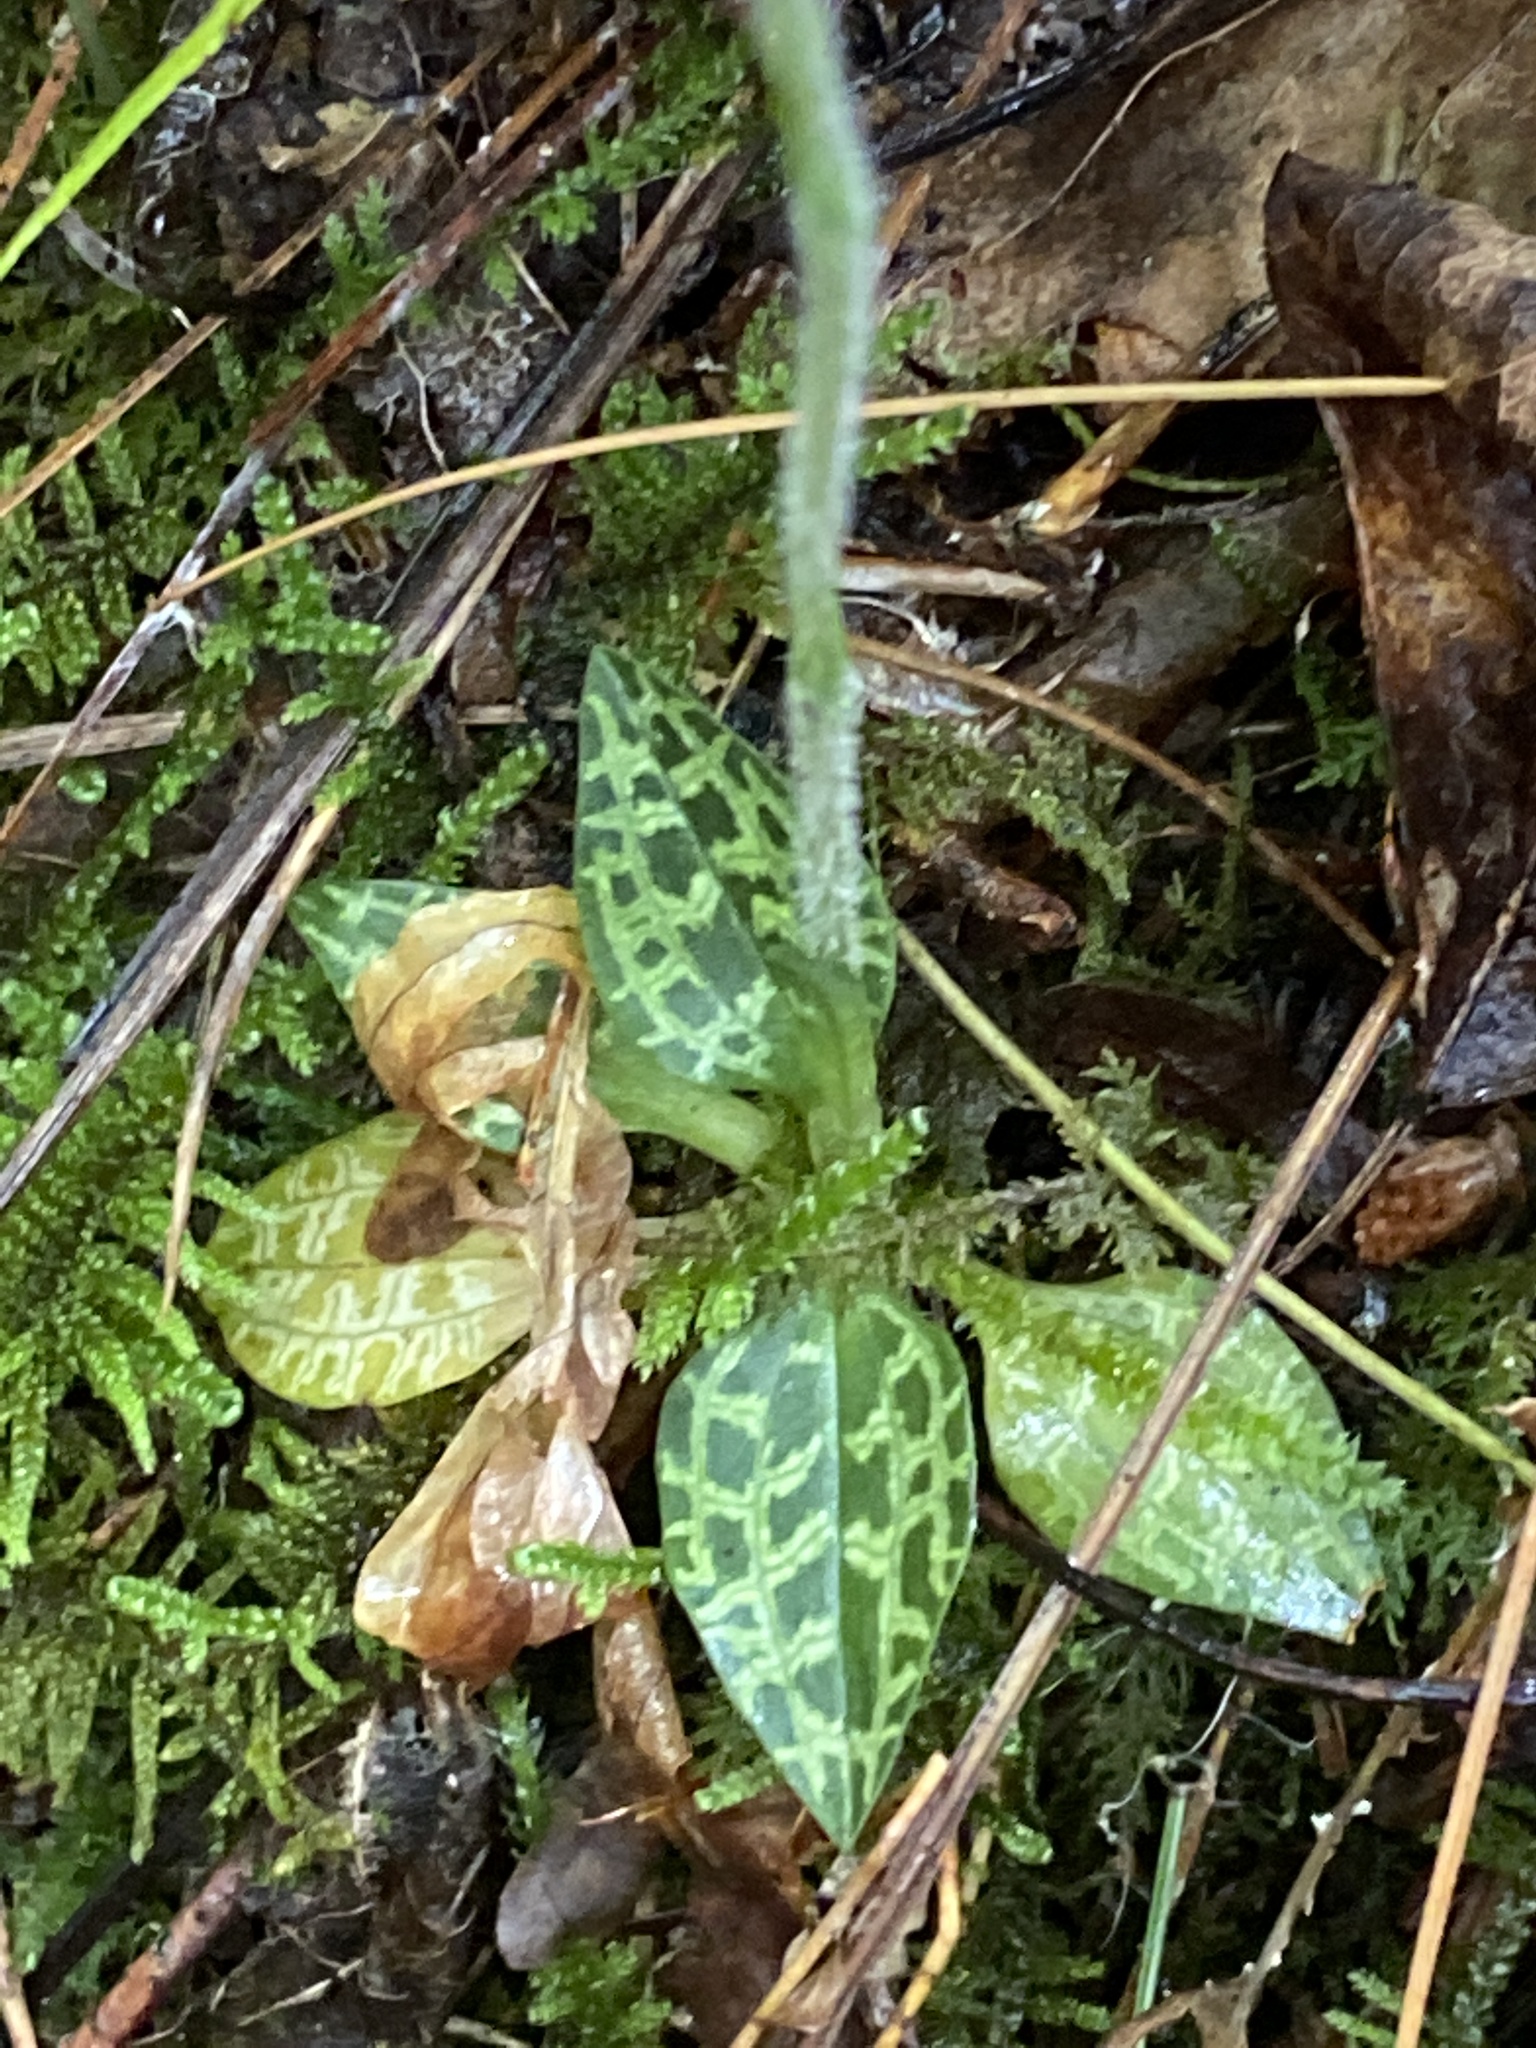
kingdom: Plantae
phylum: Tracheophyta
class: Liliopsida
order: Asparagales
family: Orchidaceae
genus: Goodyera
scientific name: Goodyera repens
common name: Creeping lady's-tresses
